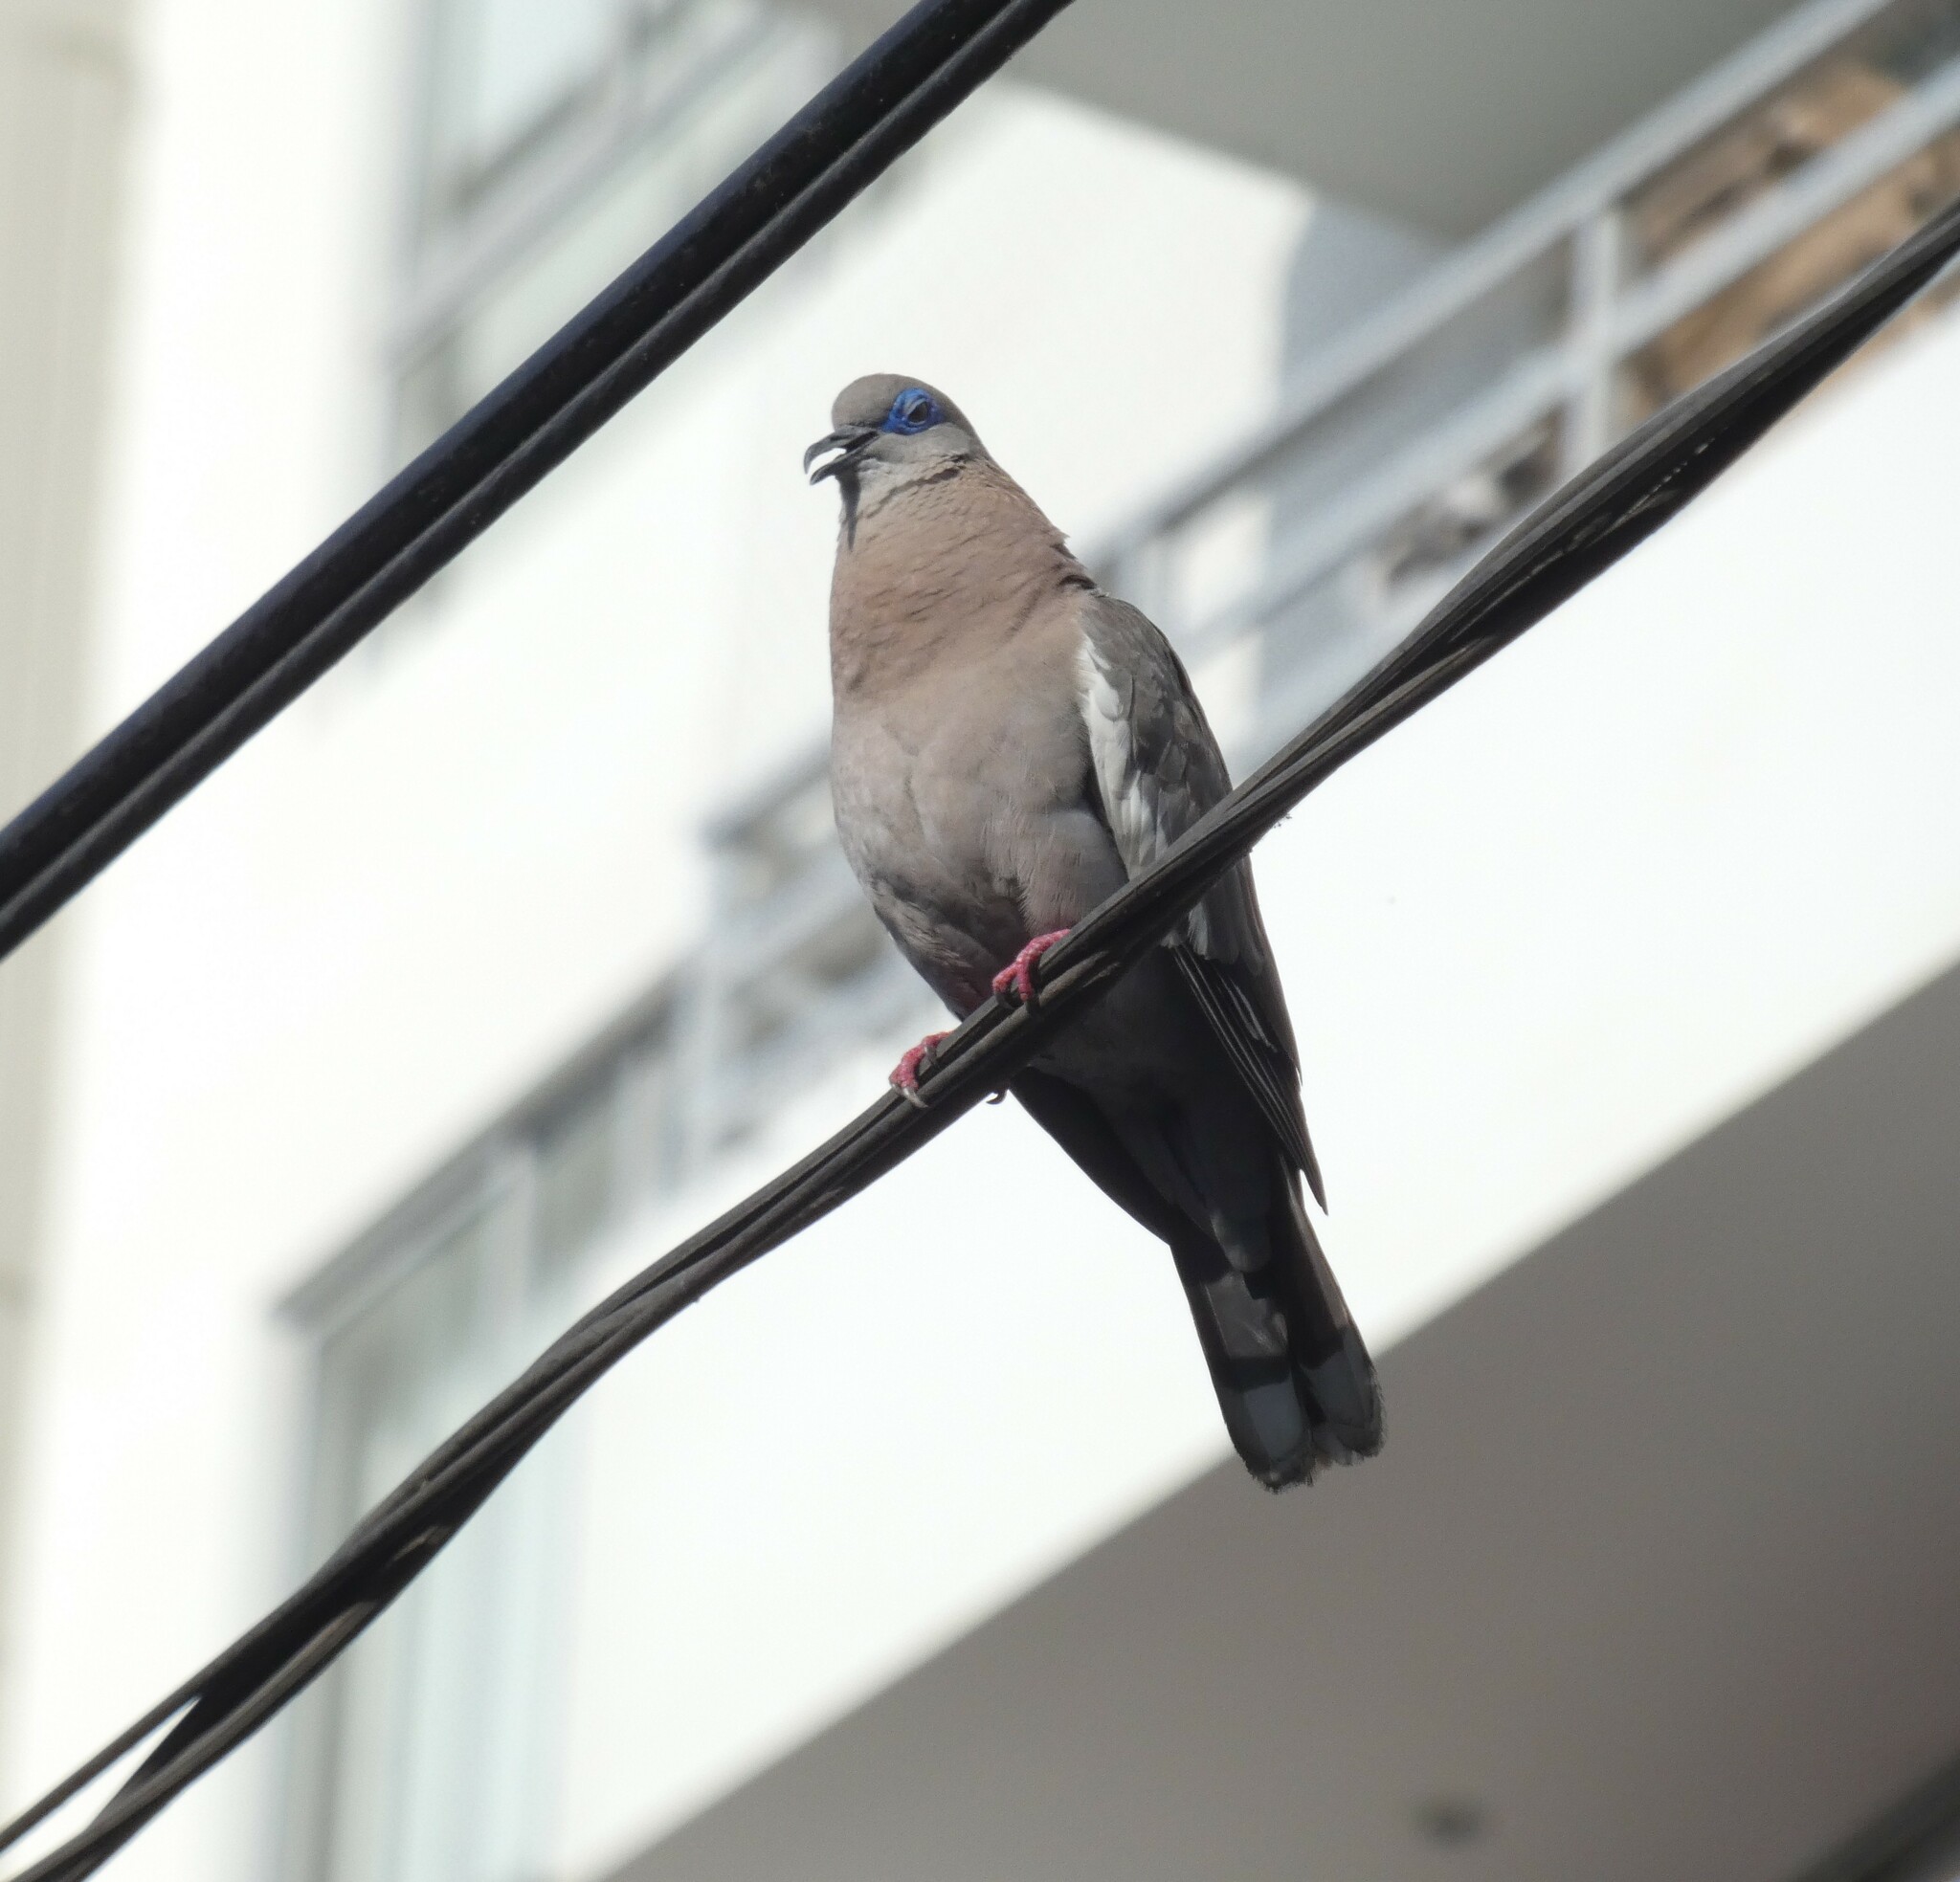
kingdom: Animalia
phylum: Chordata
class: Aves
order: Columbiformes
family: Columbidae
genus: Zenaida
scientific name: Zenaida meloda
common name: West peruvian dove
